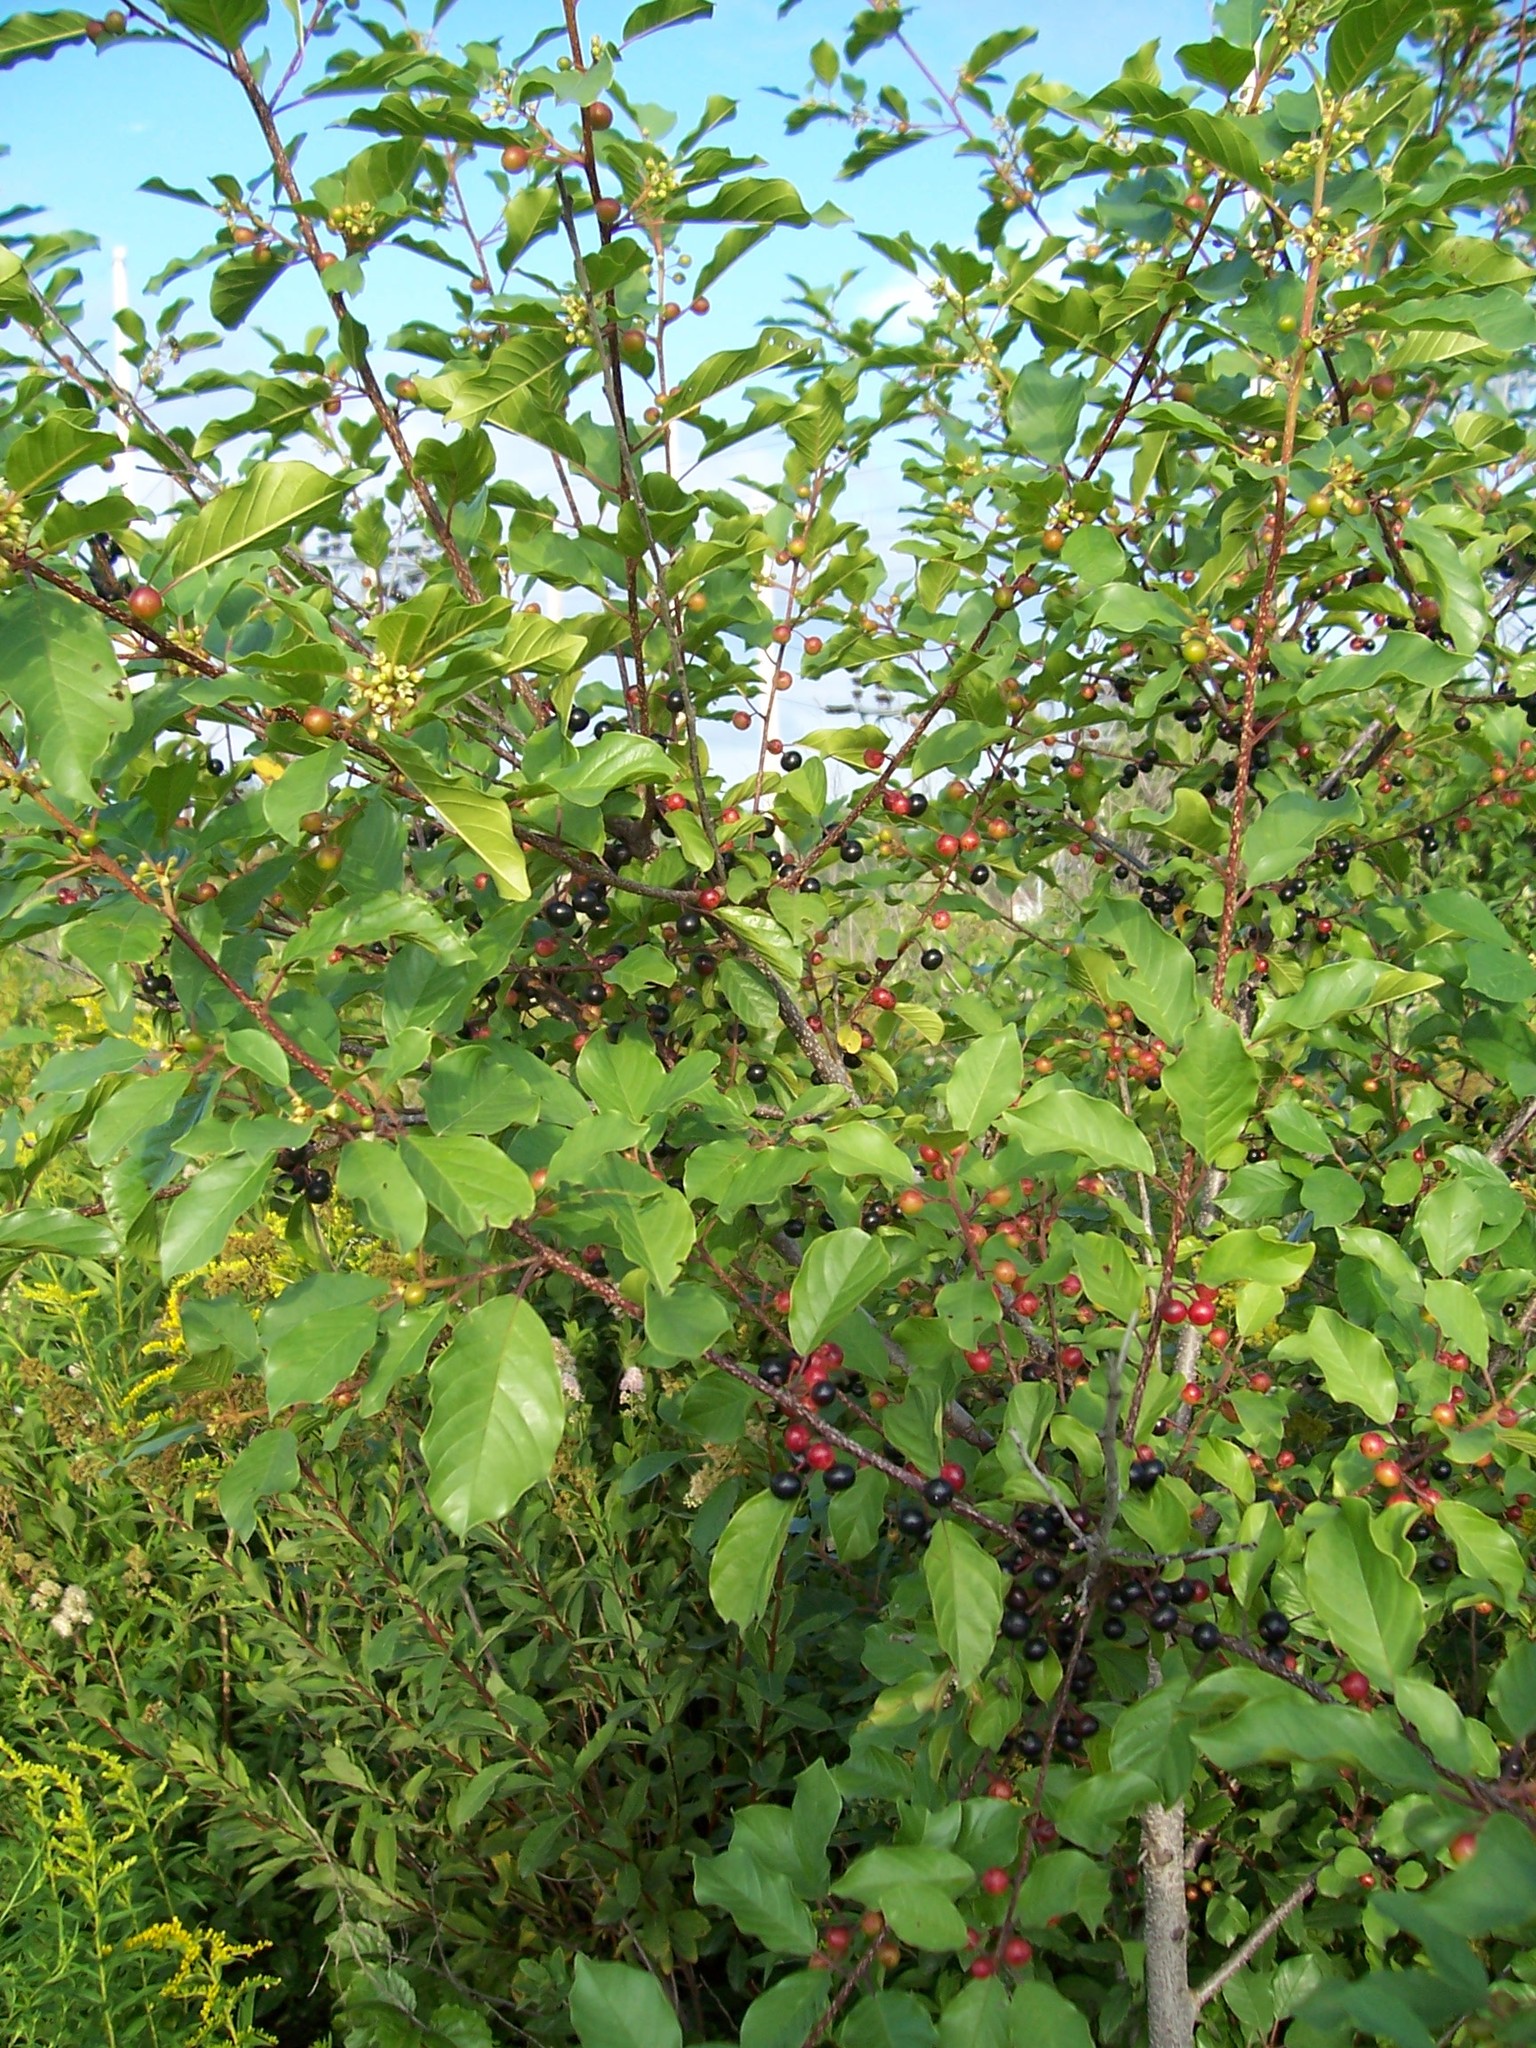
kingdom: Plantae
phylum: Tracheophyta
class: Magnoliopsida
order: Rosales
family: Rhamnaceae
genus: Frangula
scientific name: Frangula alnus
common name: Alder buckthorn
